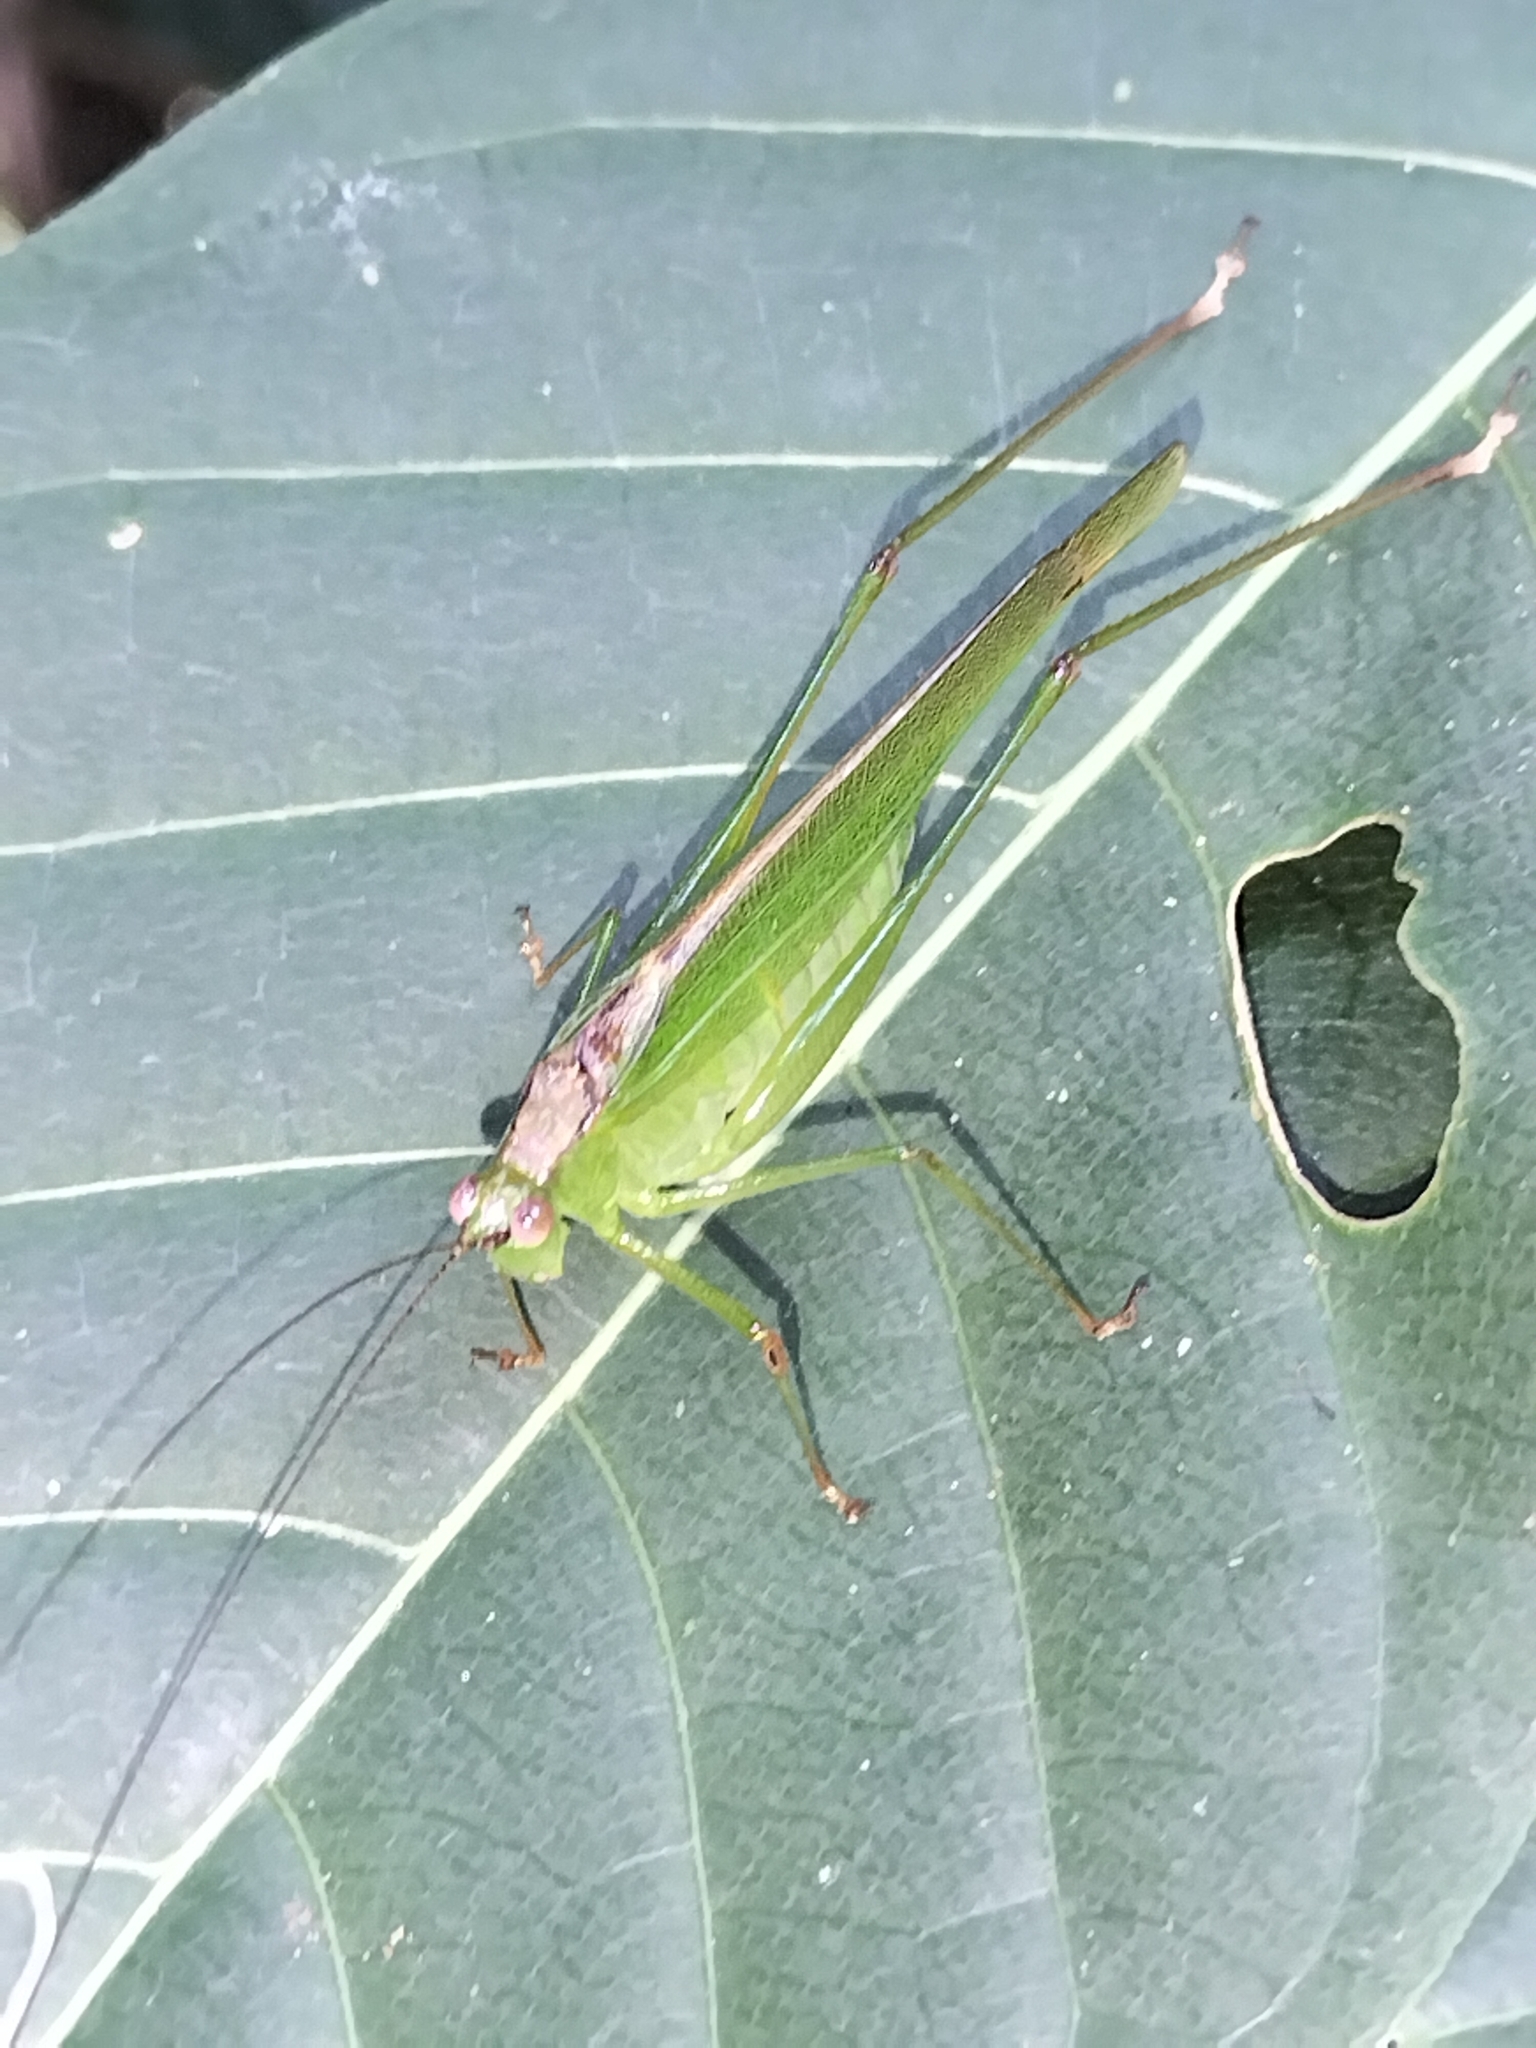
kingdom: Animalia
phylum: Arthropoda
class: Insecta
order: Orthoptera
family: Tettigoniidae
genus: Kurandoptera
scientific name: Kurandoptera purpura
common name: Purple-winged katydid
